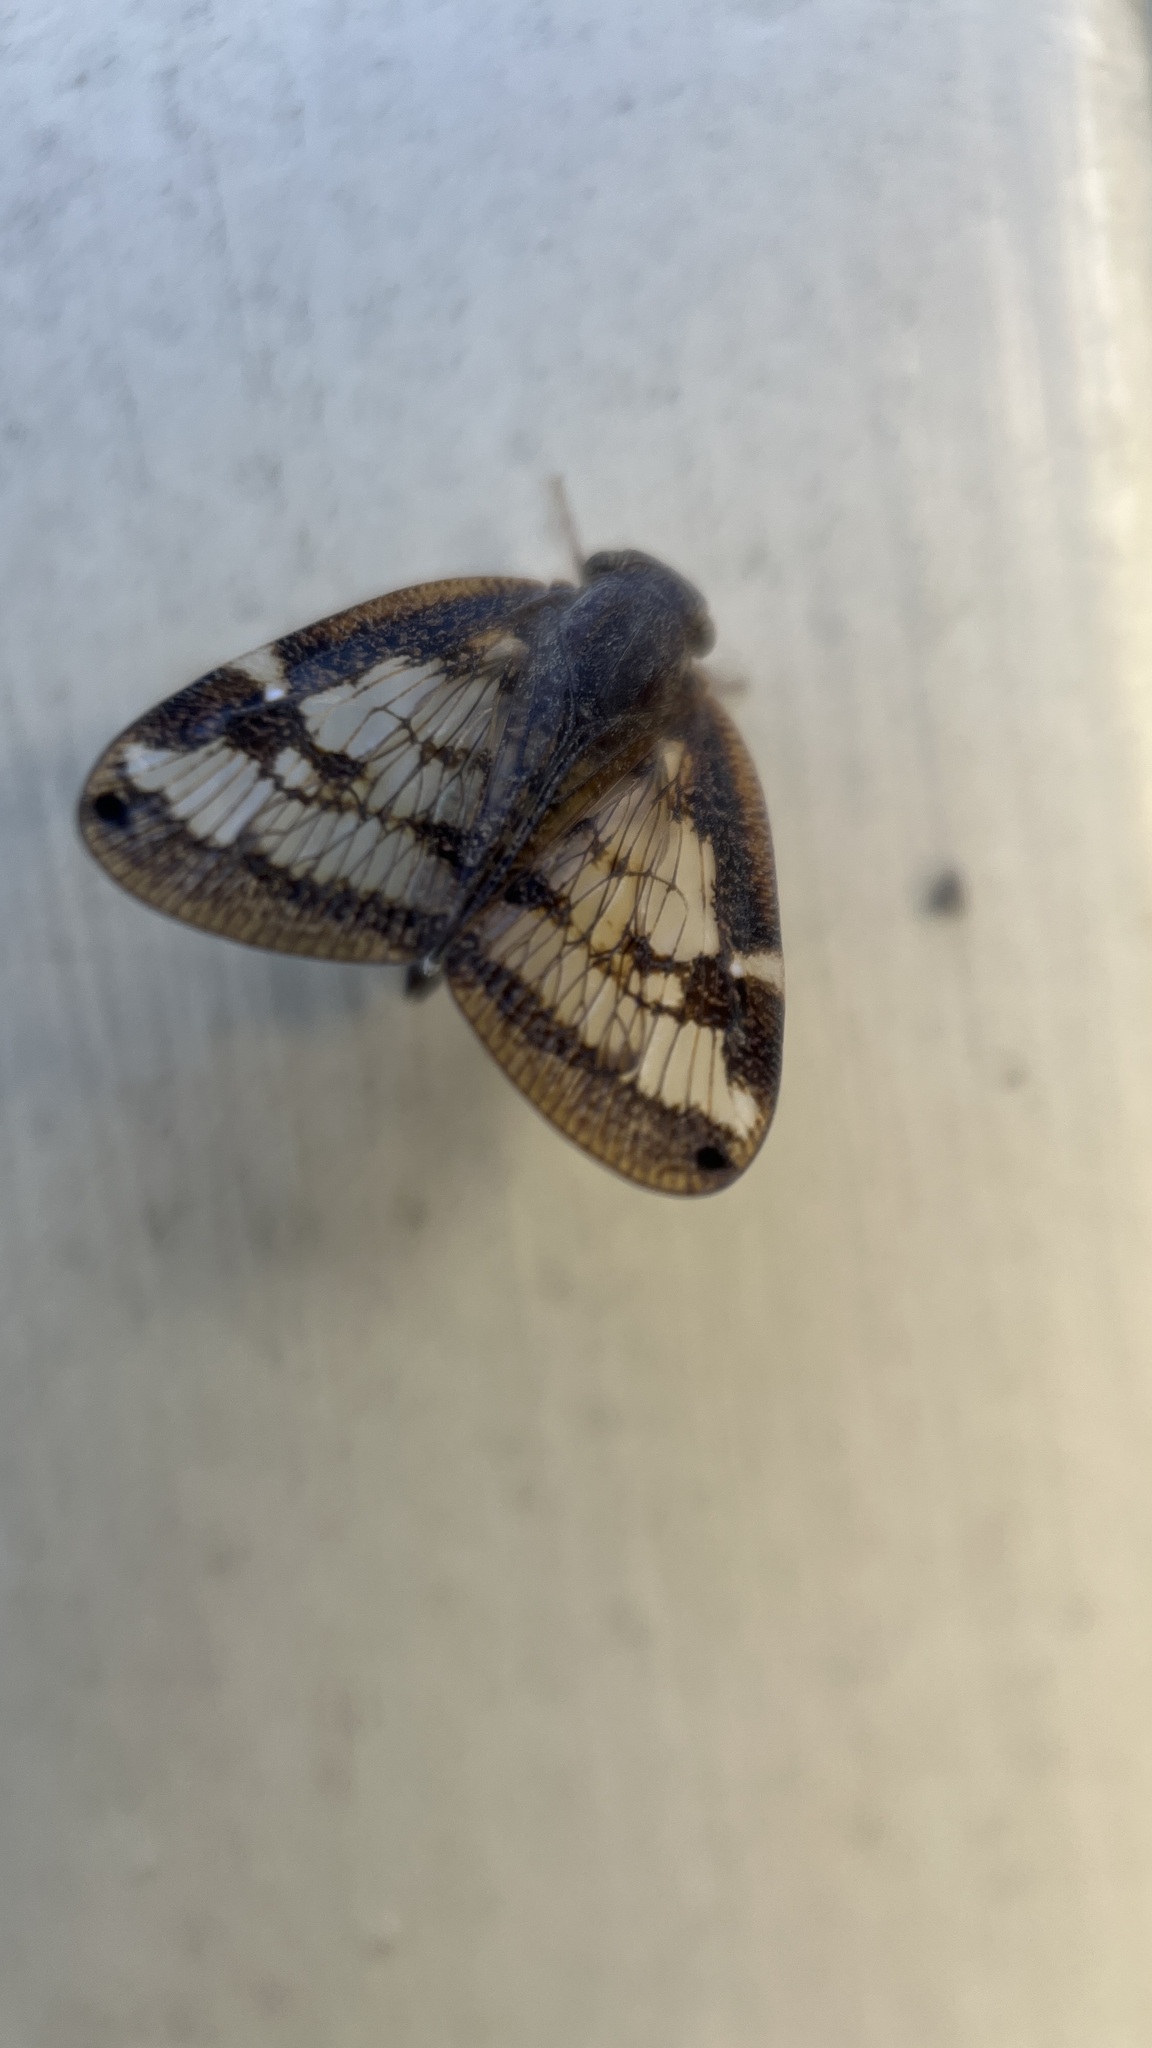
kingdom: Animalia
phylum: Arthropoda
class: Insecta
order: Hemiptera
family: Ricaniidae
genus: Scolypopa
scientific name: Scolypopa australis
